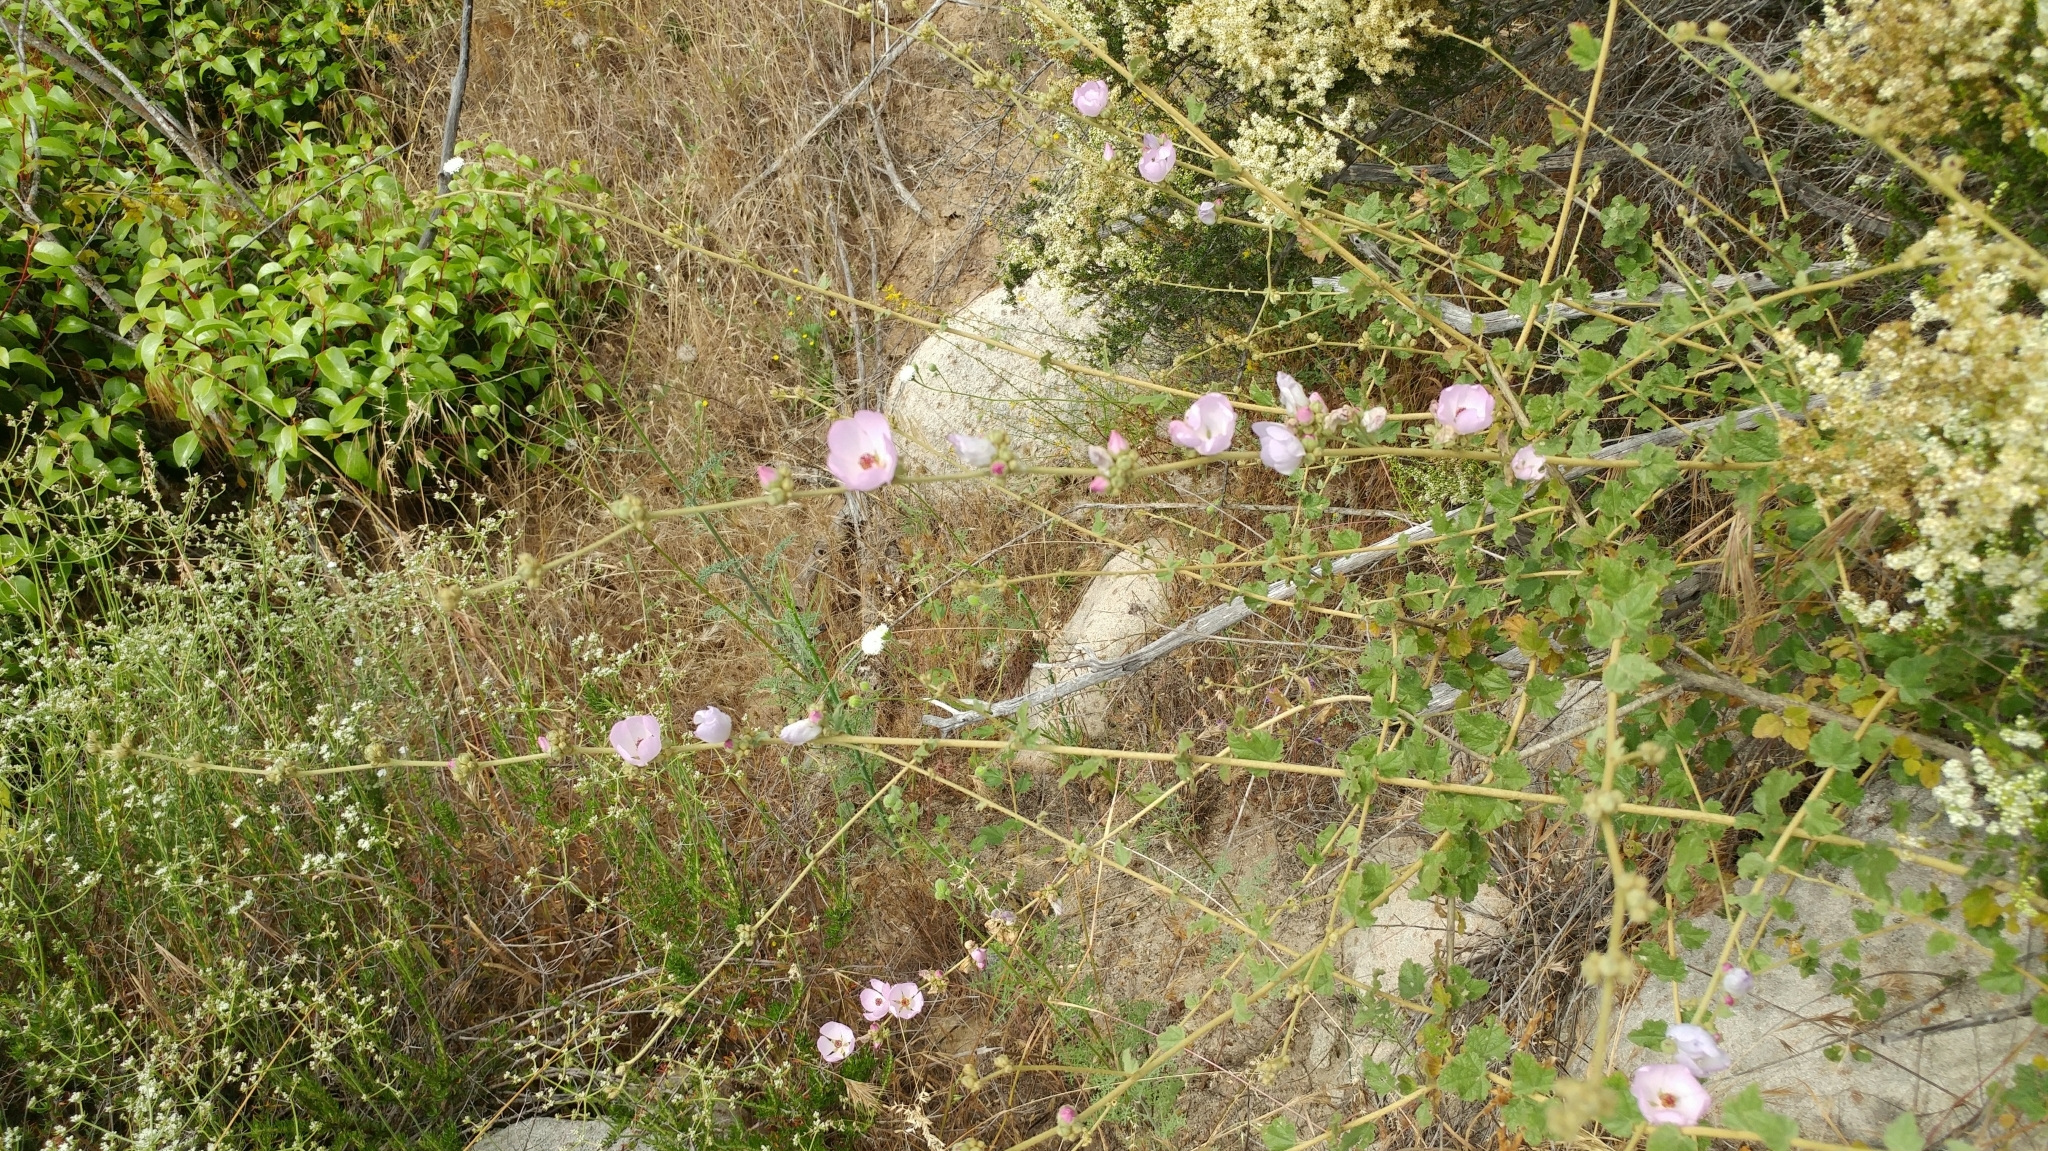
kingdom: Plantae
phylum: Tracheophyta
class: Magnoliopsida
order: Malvales
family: Malvaceae
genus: Malacothamnus
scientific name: Malacothamnus fasciculatus
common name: Sant cruz island bush-mallow
